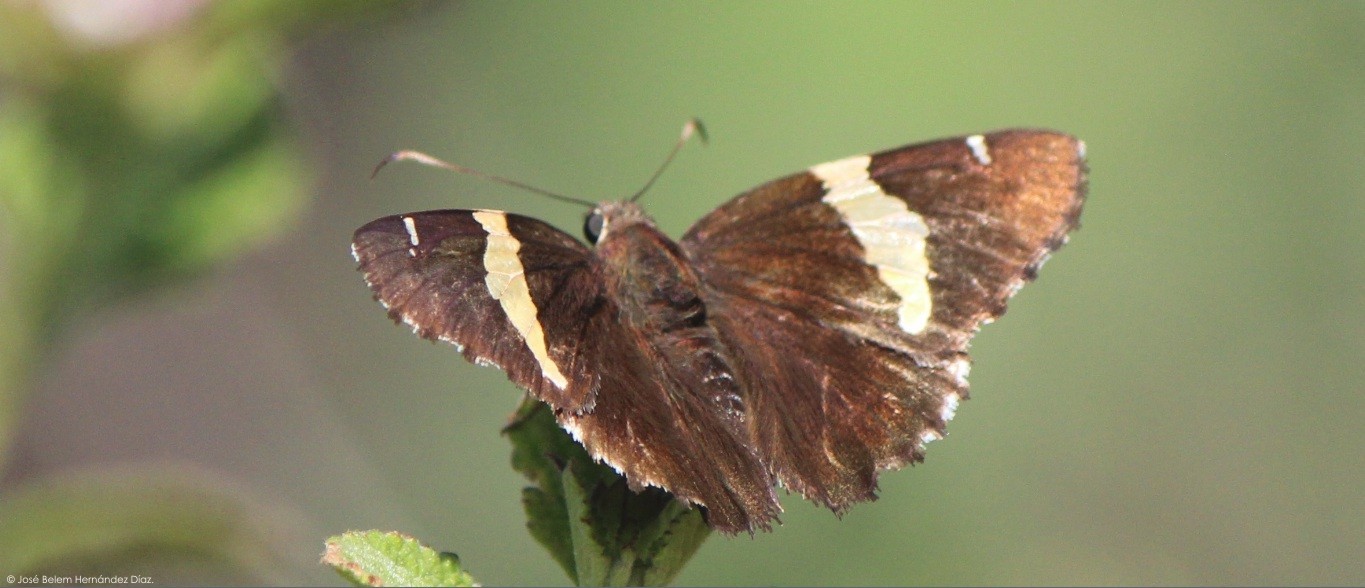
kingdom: Animalia
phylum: Arthropoda
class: Arachnida
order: Scorpiones
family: Bothriuridae
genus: Telegonus
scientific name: Telegonus cellus
